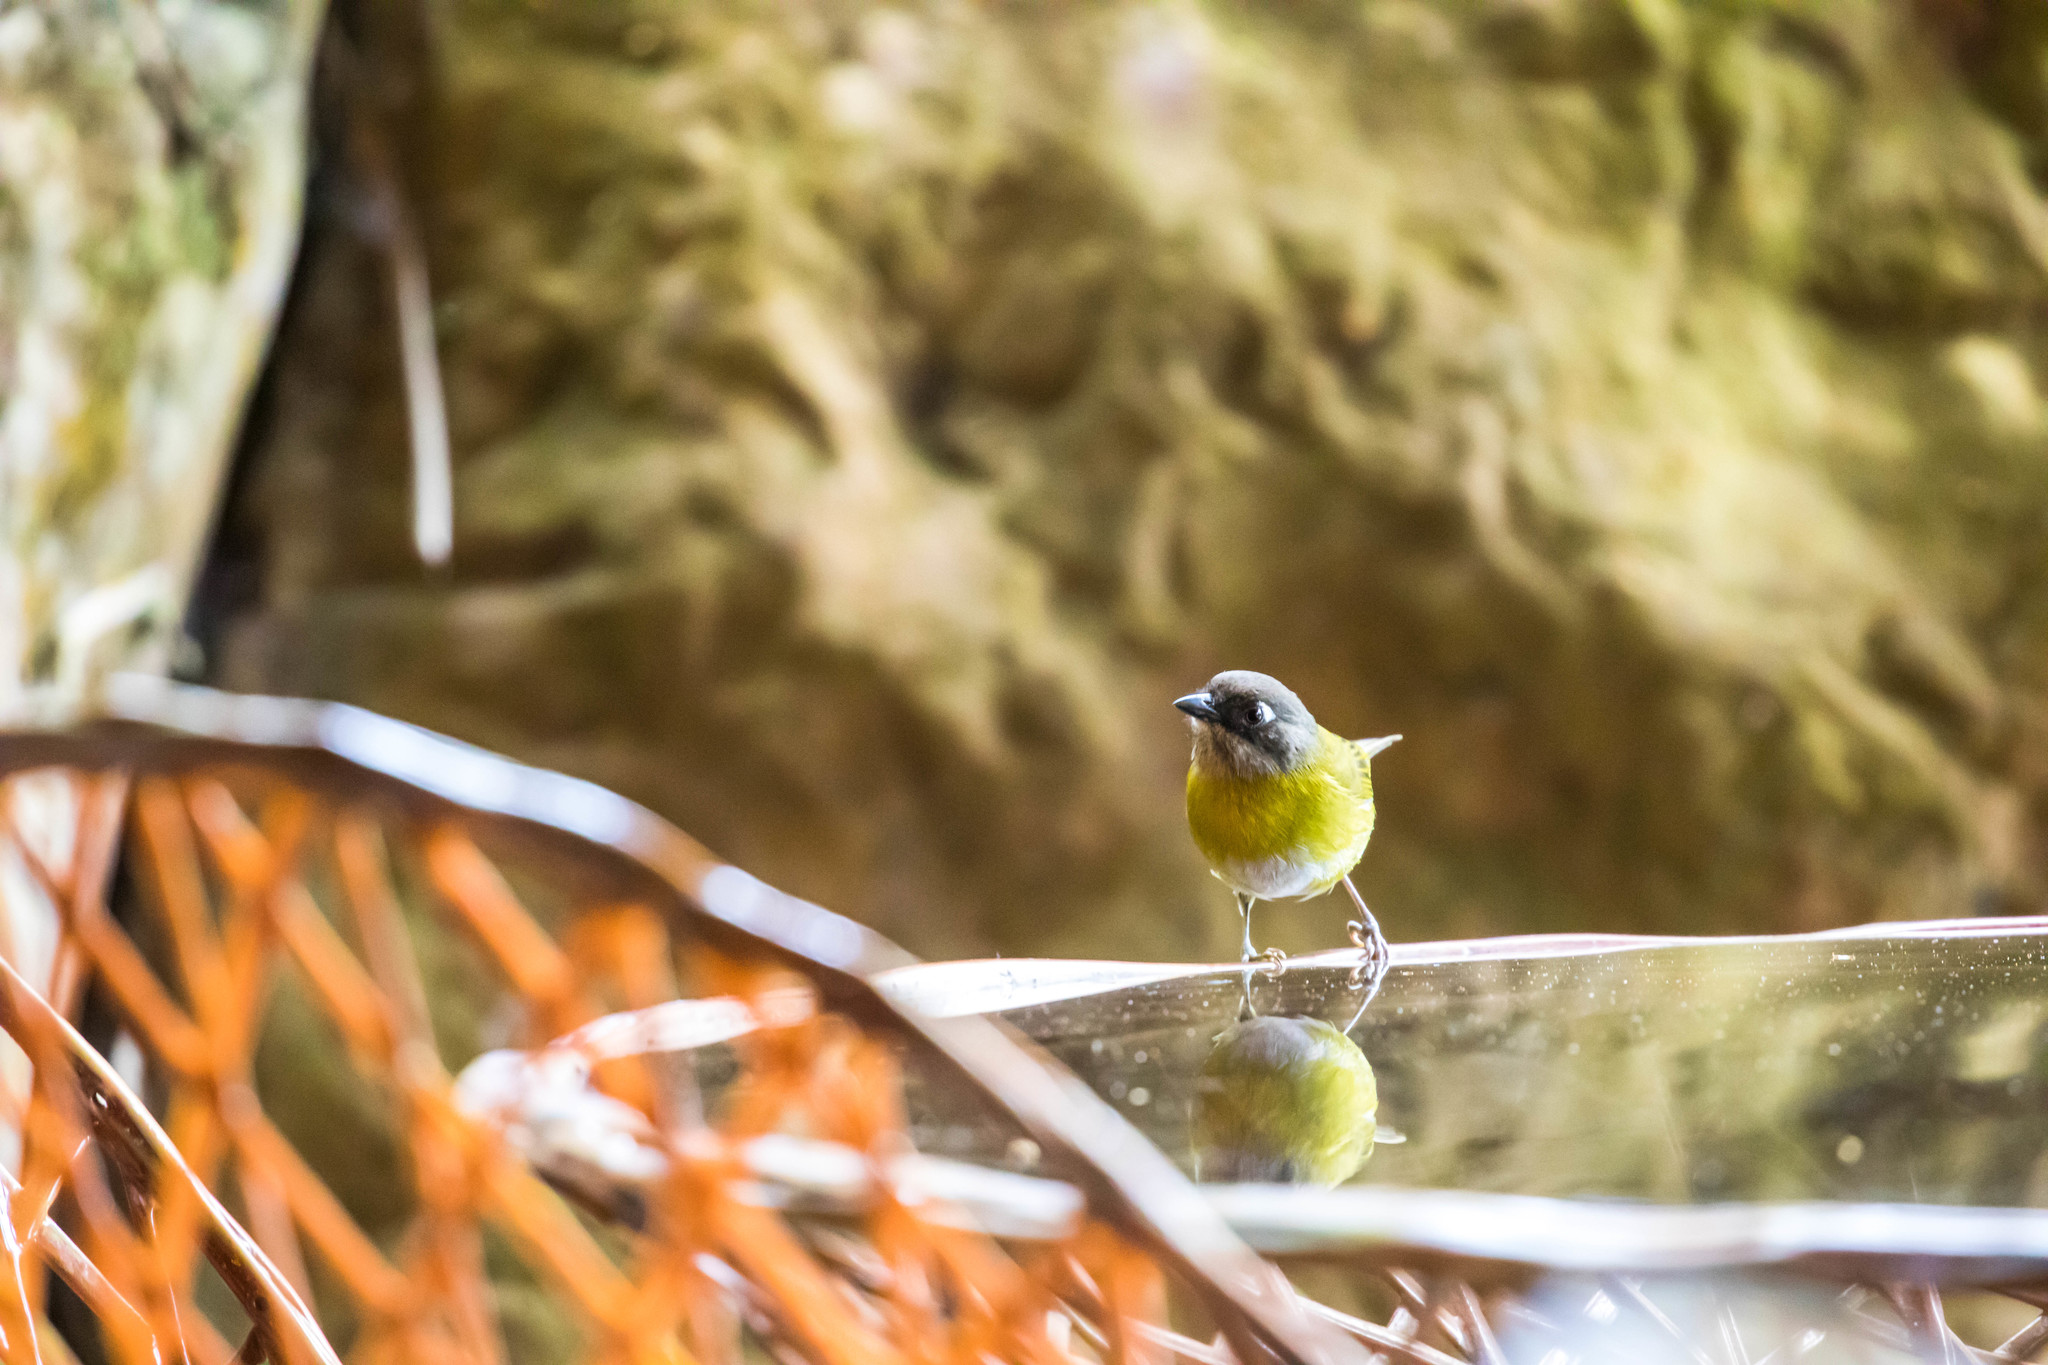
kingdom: Animalia
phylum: Chordata
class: Aves
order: Passeriformes
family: Passerellidae
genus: Chlorospingus
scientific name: Chlorospingus flavopectus
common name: Common chlorospingus
